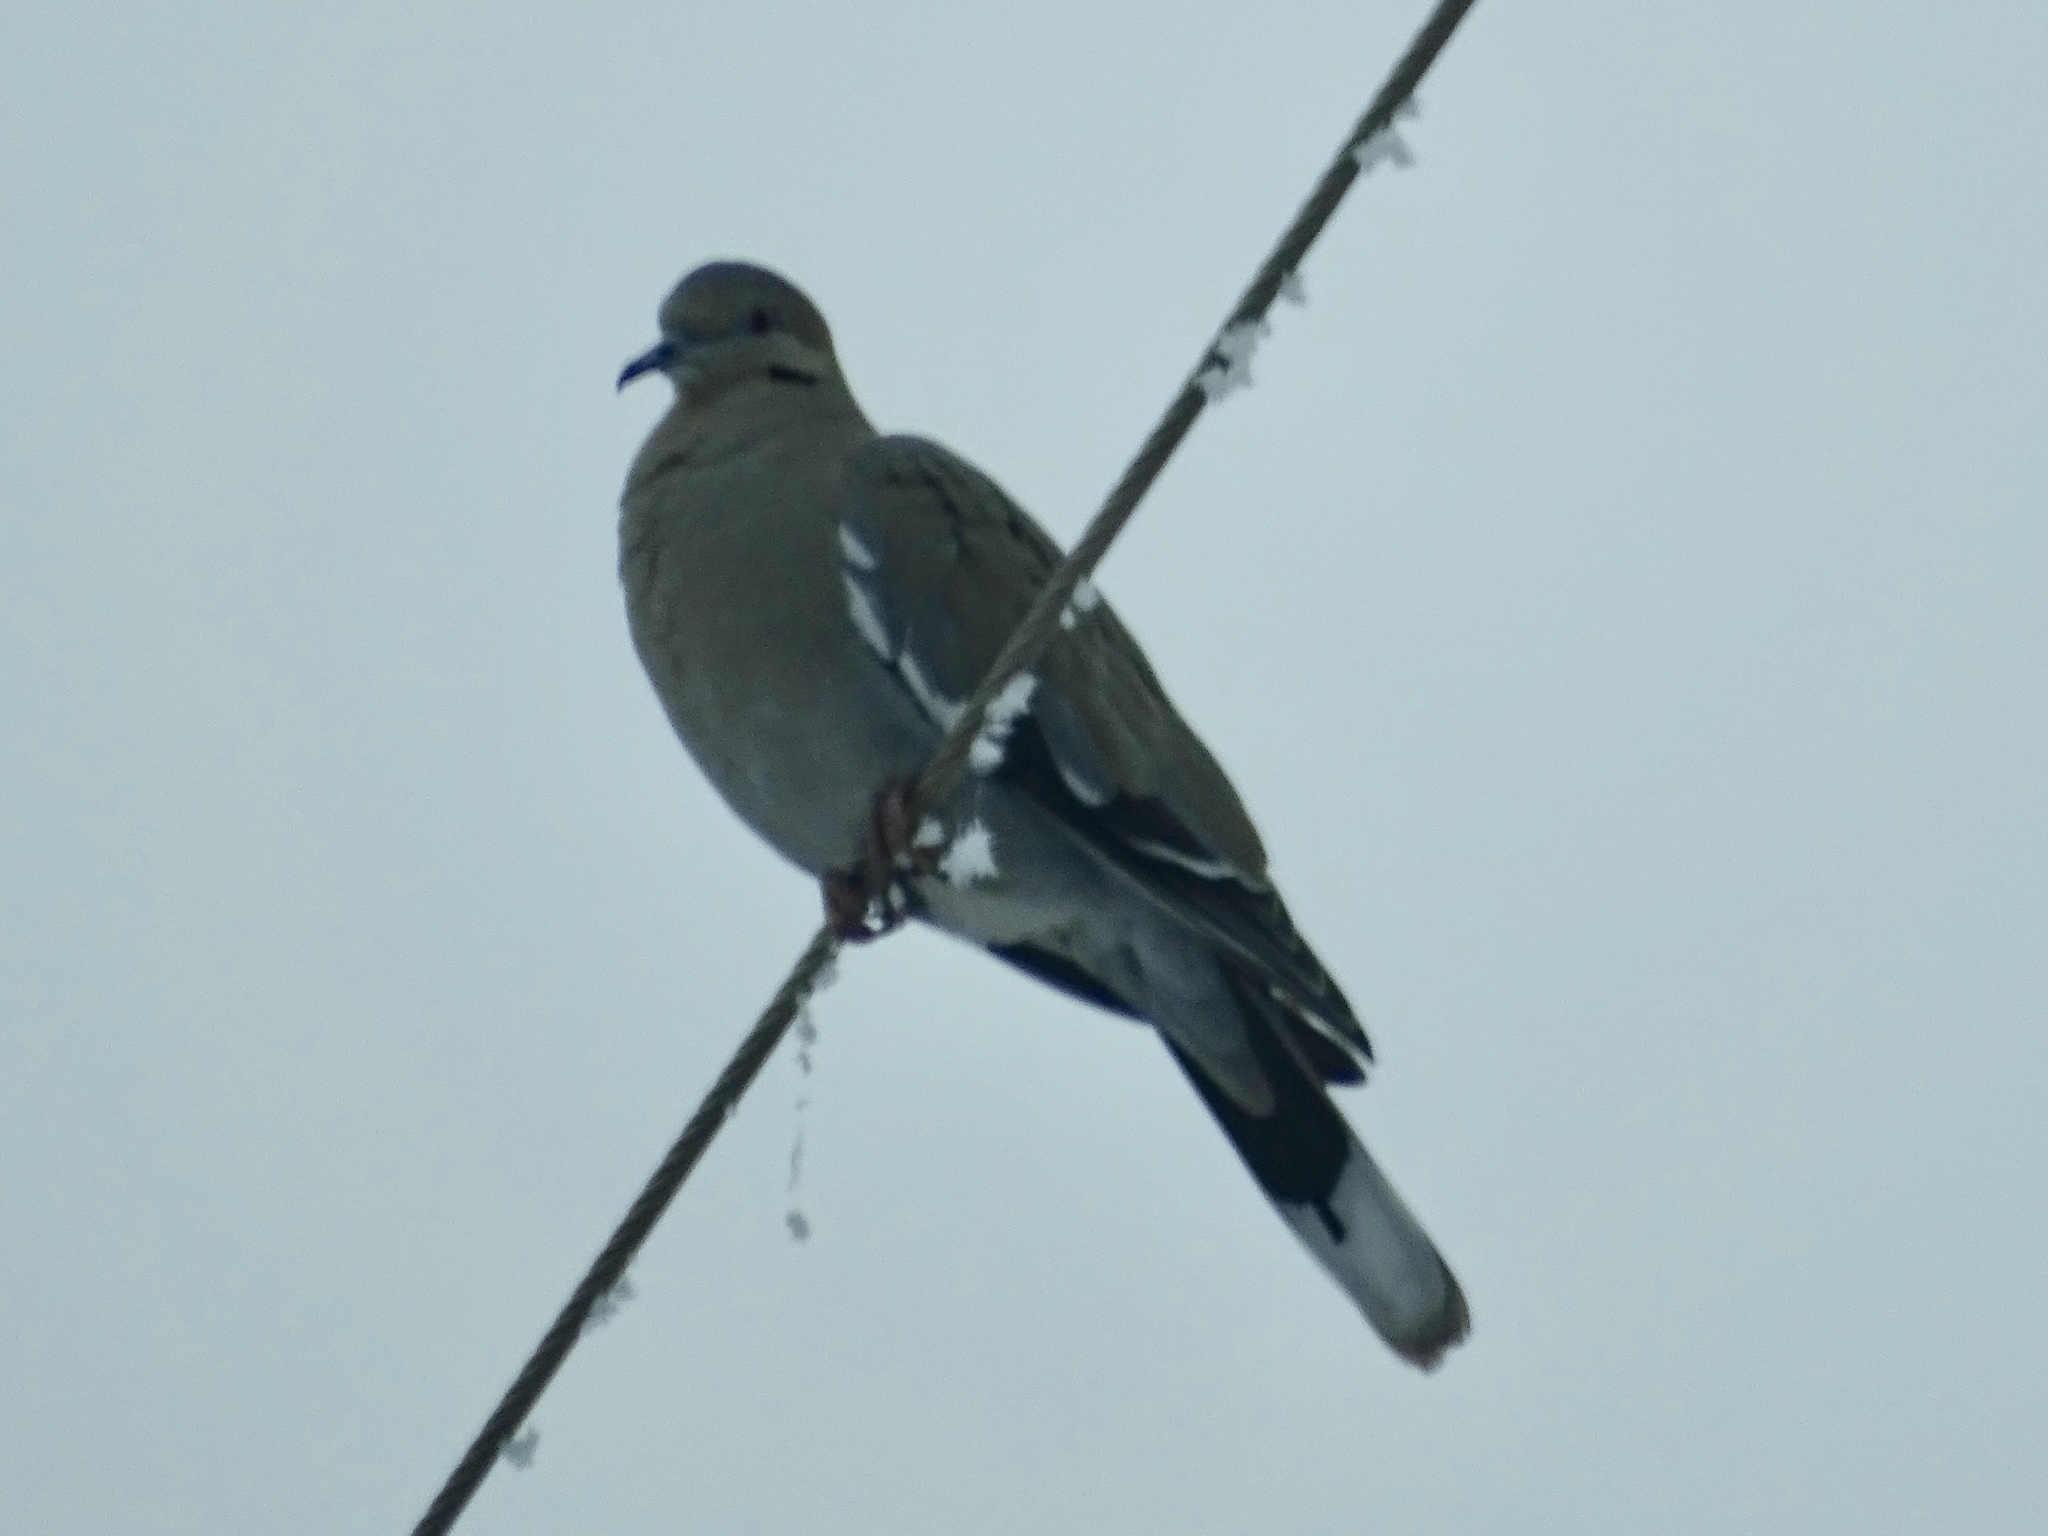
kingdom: Animalia
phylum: Chordata
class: Aves
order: Columbiformes
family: Columbidae
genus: Zenaida
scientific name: Zenaida asiatica
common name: White-winged dove
